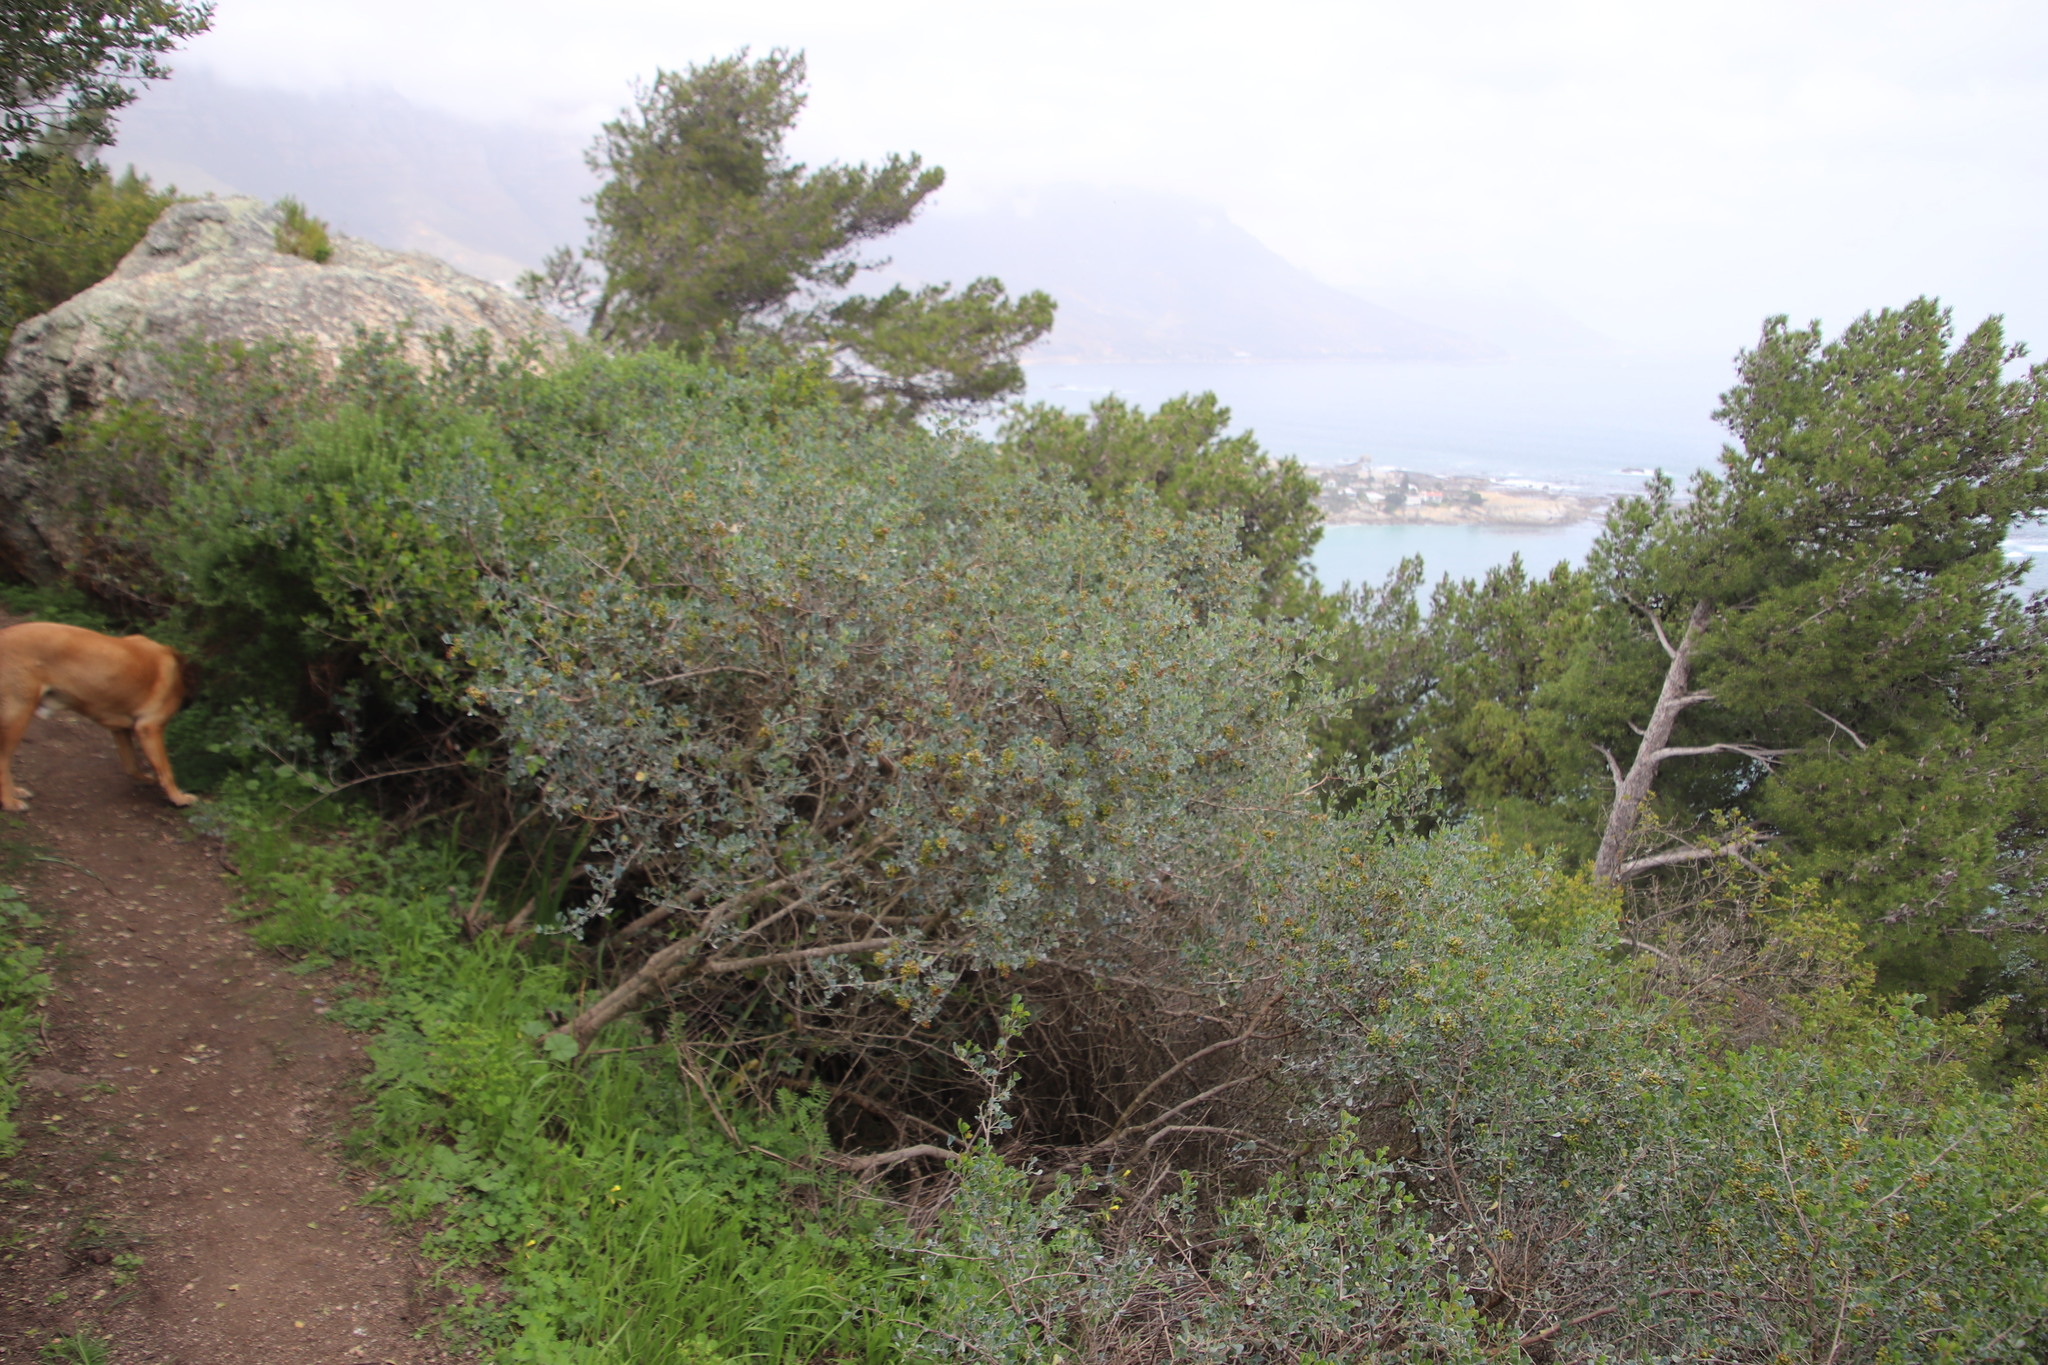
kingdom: Plantae
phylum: Tracheophyta
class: Magnoliopsida
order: Sapindales
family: Anacardiaceae
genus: Searsia
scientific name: Searsia glauca
